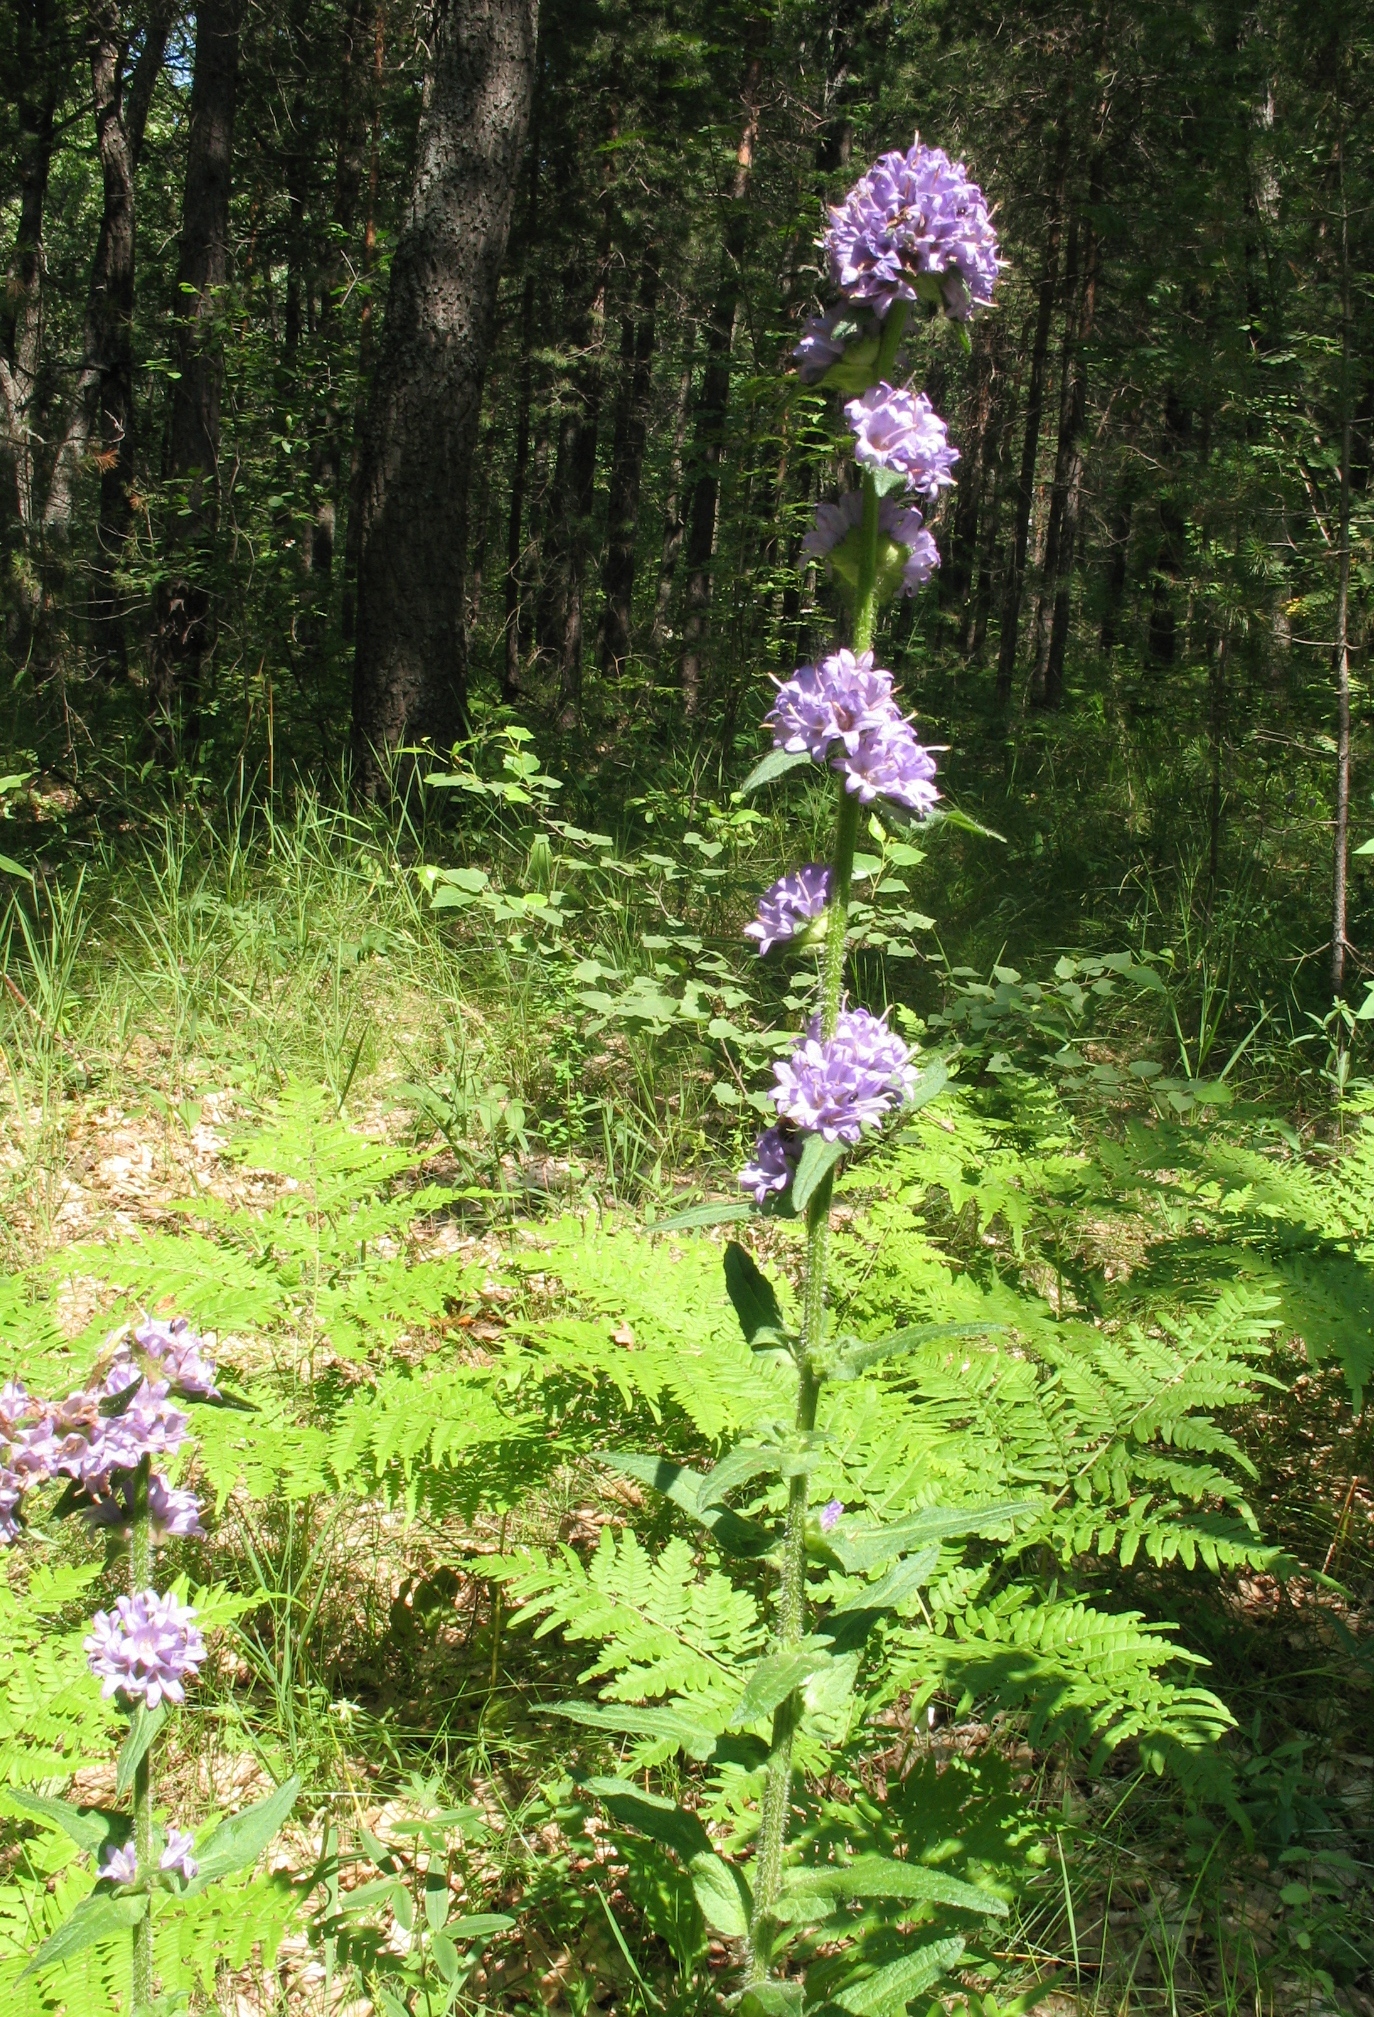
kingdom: Plantae
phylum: Tracheophyta
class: Magnoliopsida
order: Asterales
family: Campanulaceae
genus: Campanula
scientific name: Campanula cervicaria
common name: Bristly bellflower
